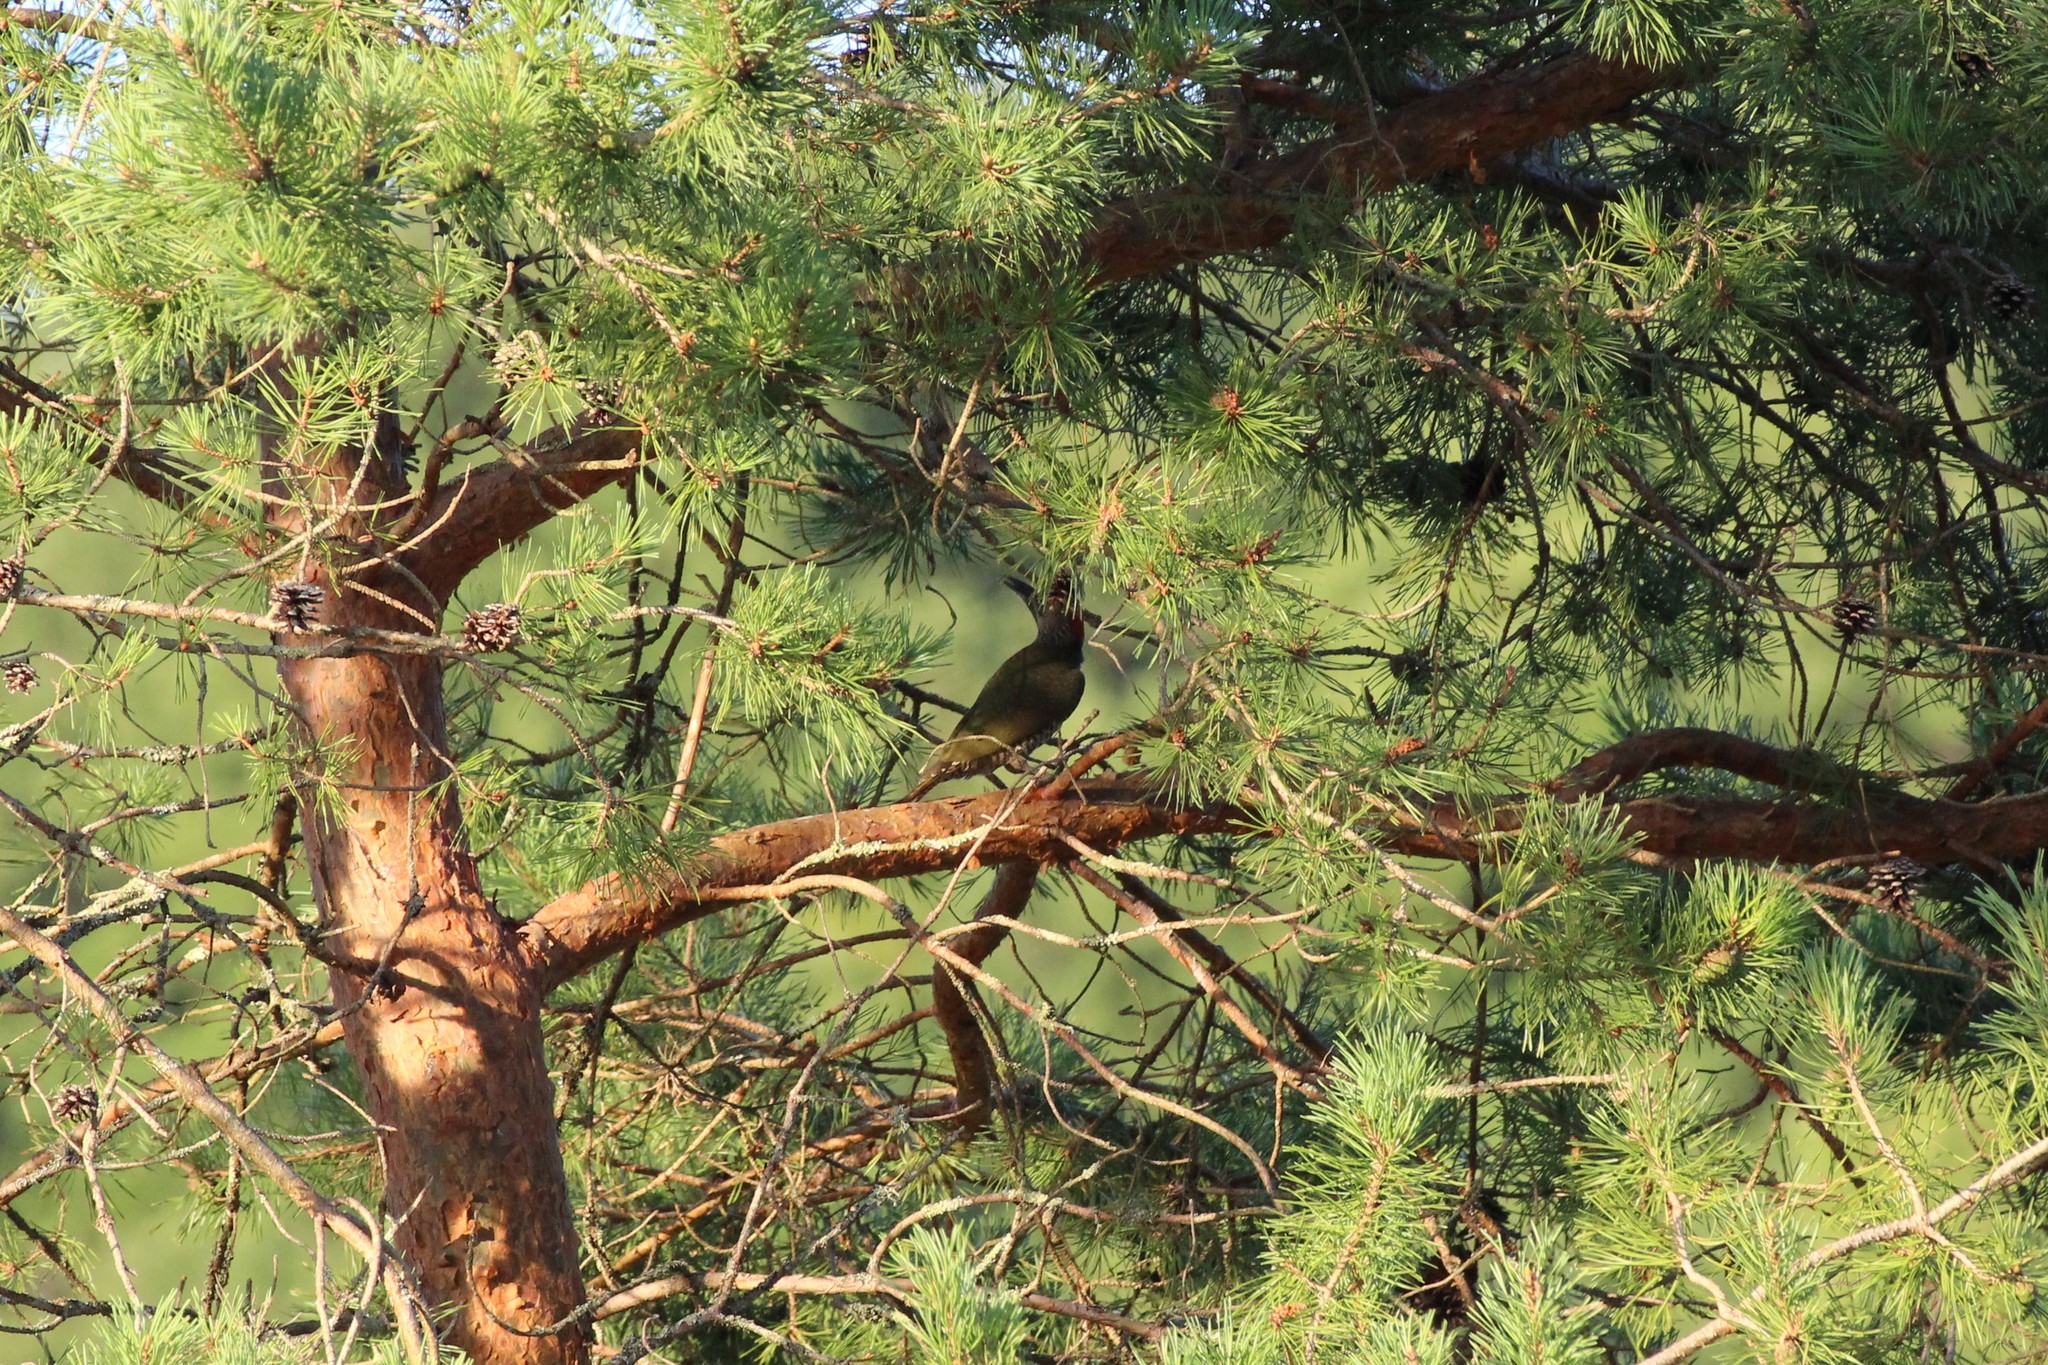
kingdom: Animalia
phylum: Chordata
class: Aves
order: Piciformes
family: Picidae
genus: Picus
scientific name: Picus viridis
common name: European green woodpecker
